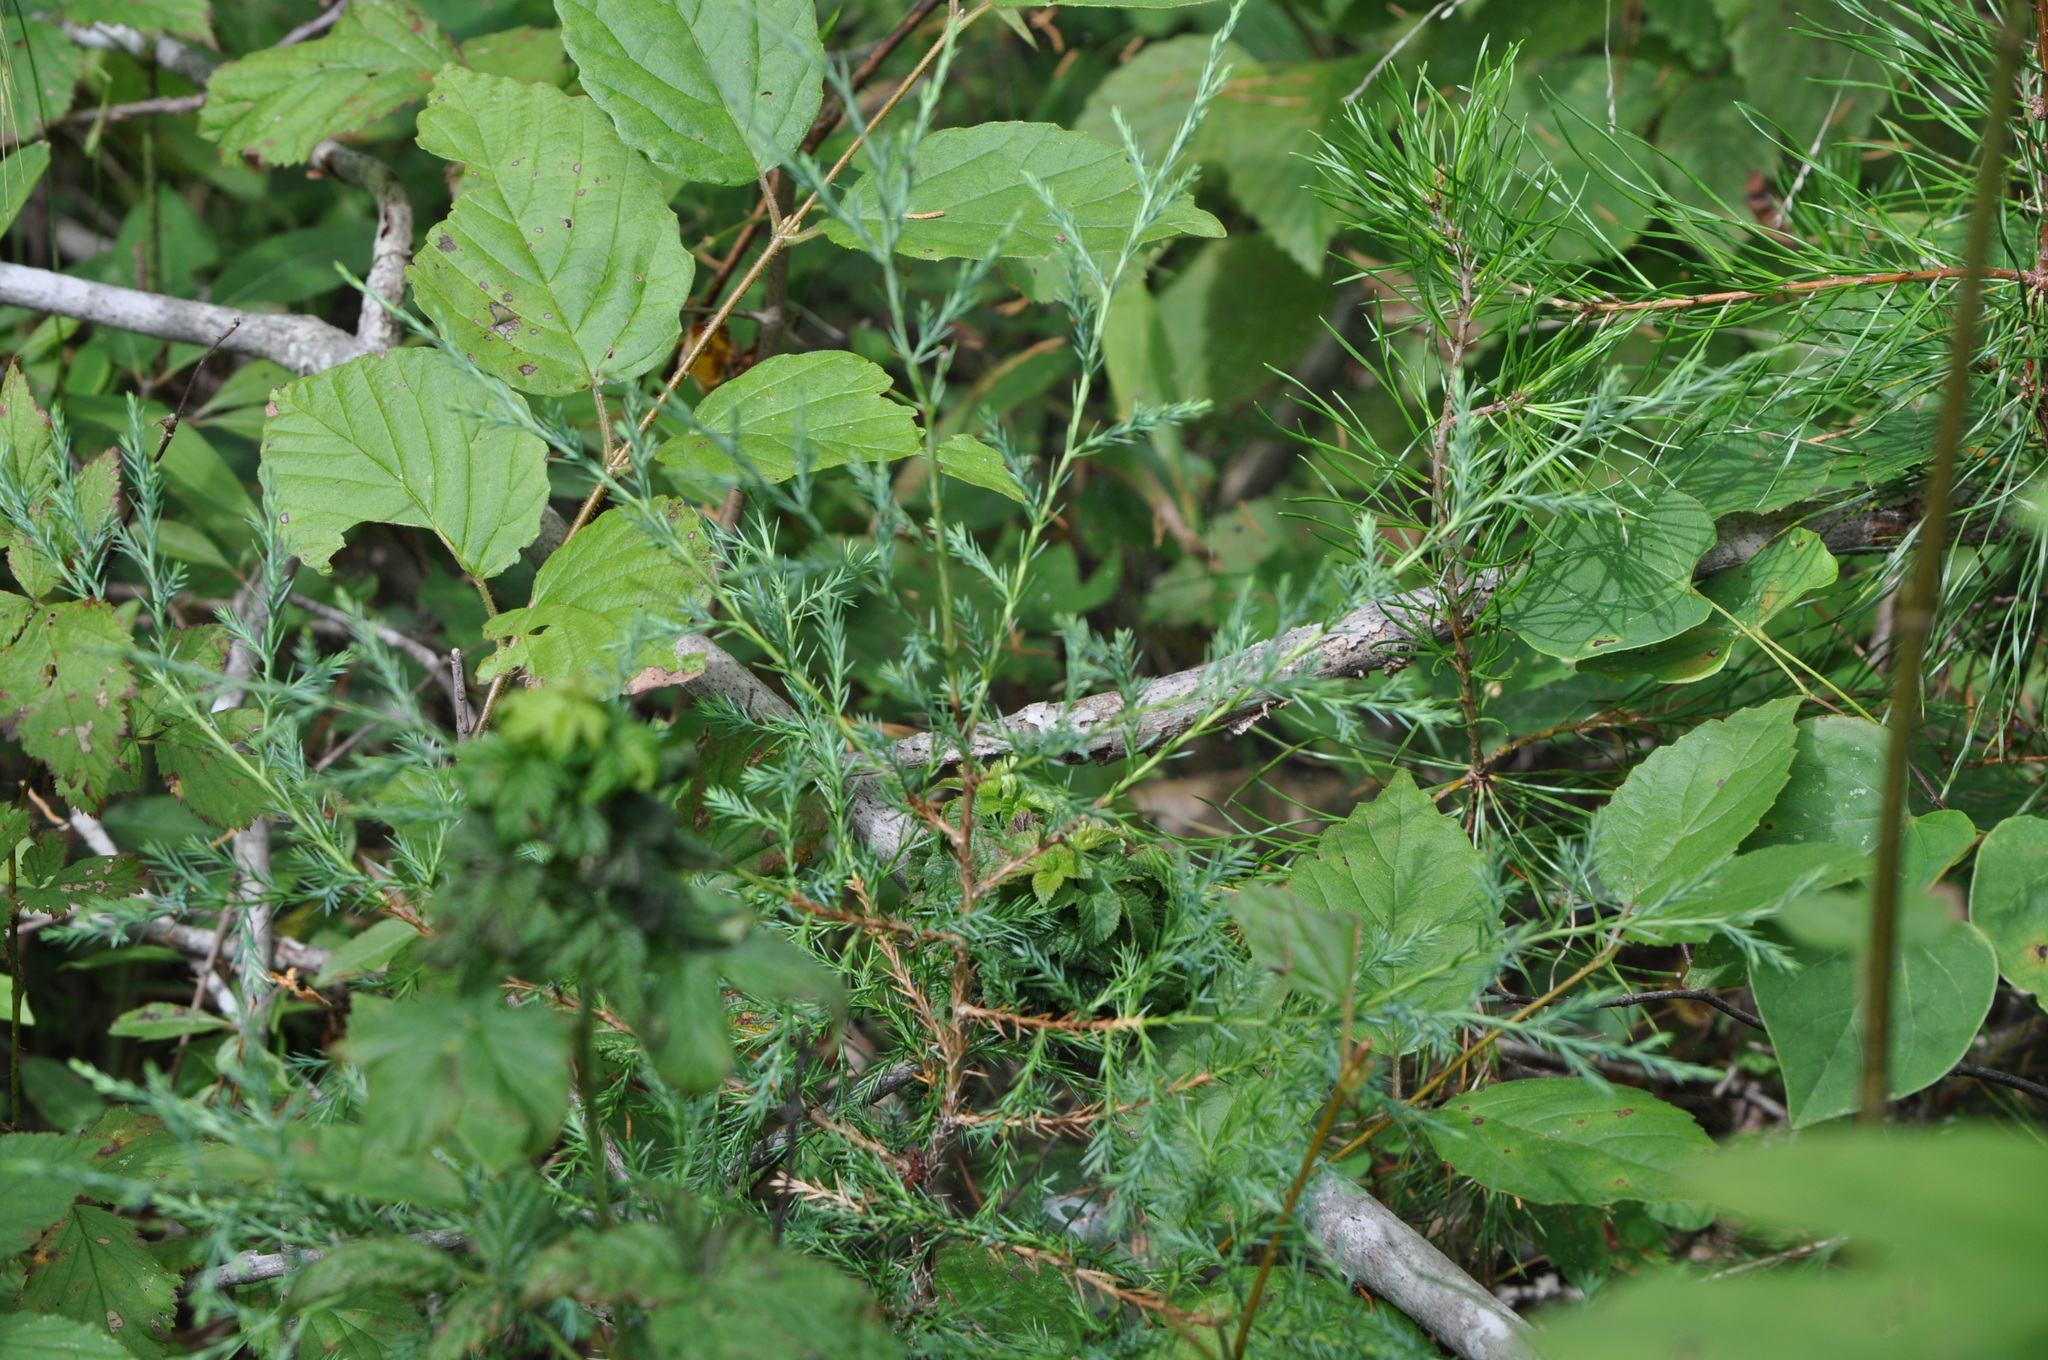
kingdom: Plantae
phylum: Tracheophyta
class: Pinopsida
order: Pinales
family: Cupressaceae
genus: Juniperus
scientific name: Juniperus virginiana
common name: Red juniper
